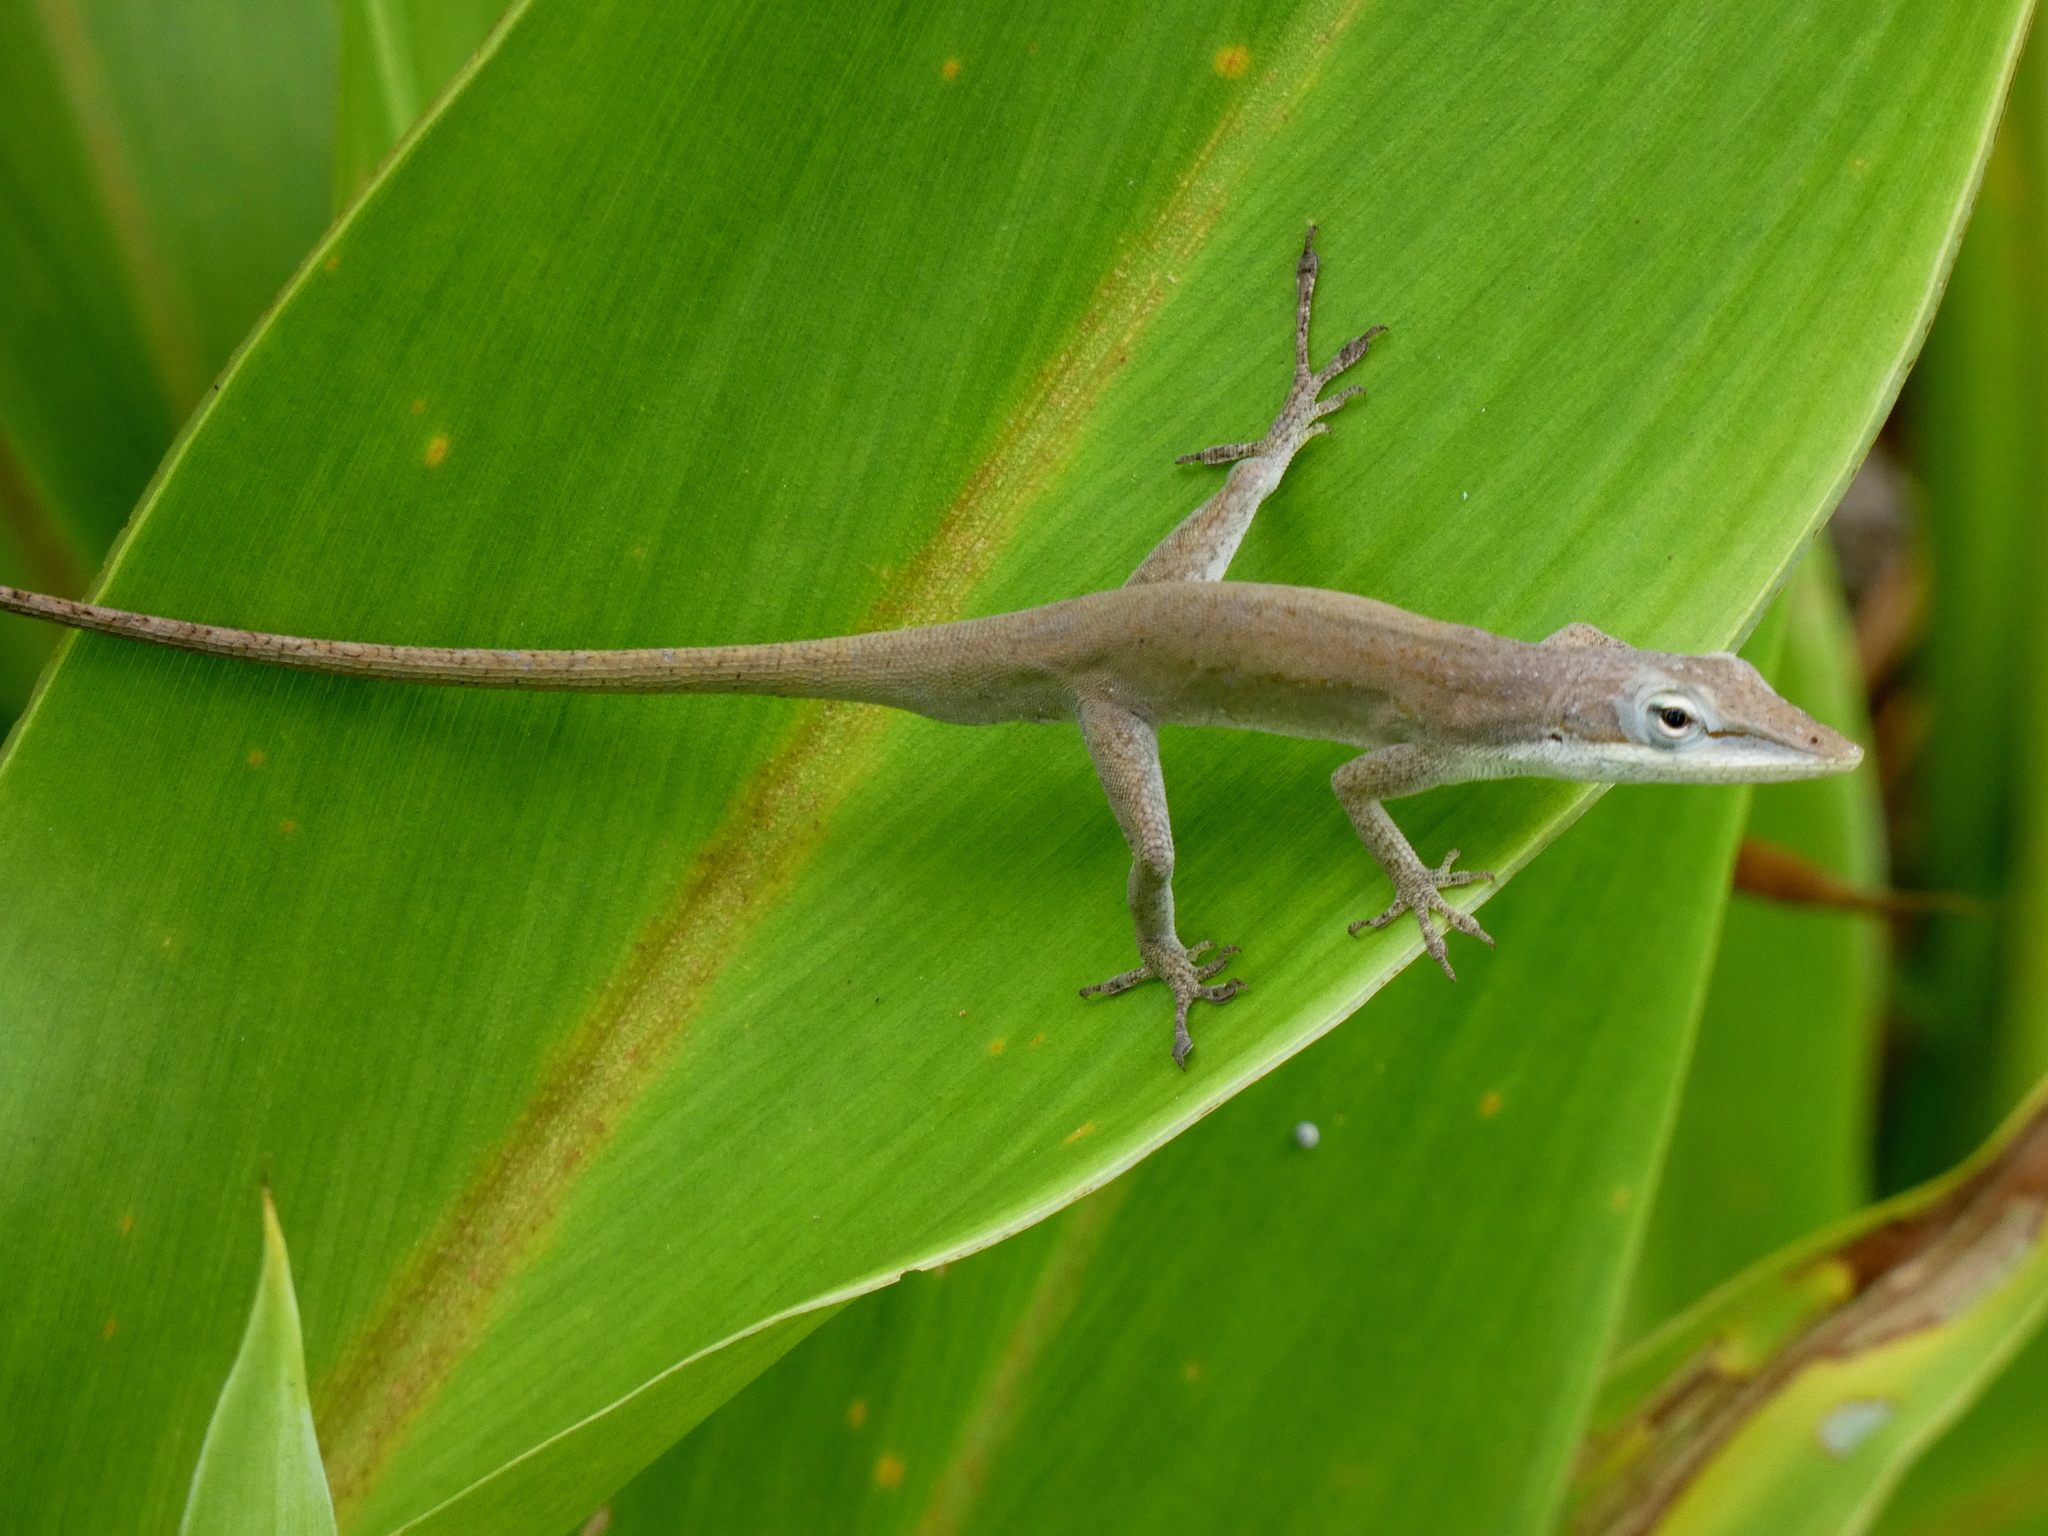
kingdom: Animalia
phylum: Chordata
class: Squamata
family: Dactyloidae
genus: Anolis
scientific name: Anolis carolinensis
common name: Green anole
